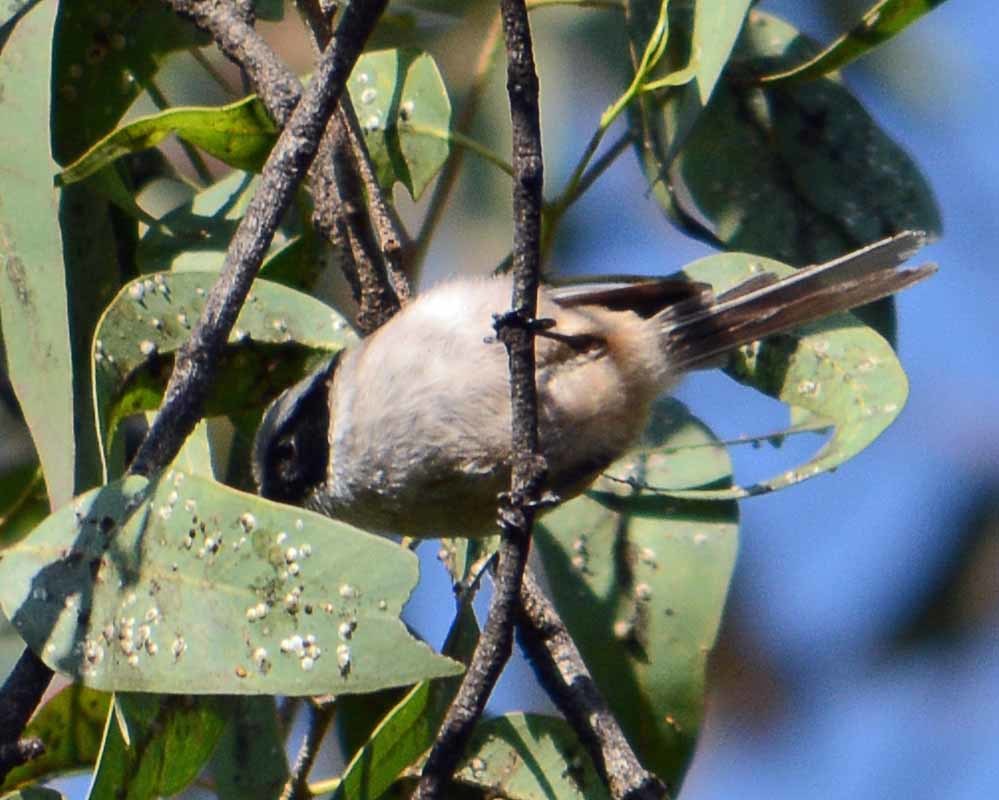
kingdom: Animalia
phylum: Chordata
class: Aves
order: Passeriformes
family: Aegithalidae
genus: Psaltriparus
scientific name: Psaltriparus minimus
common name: American bushtit
